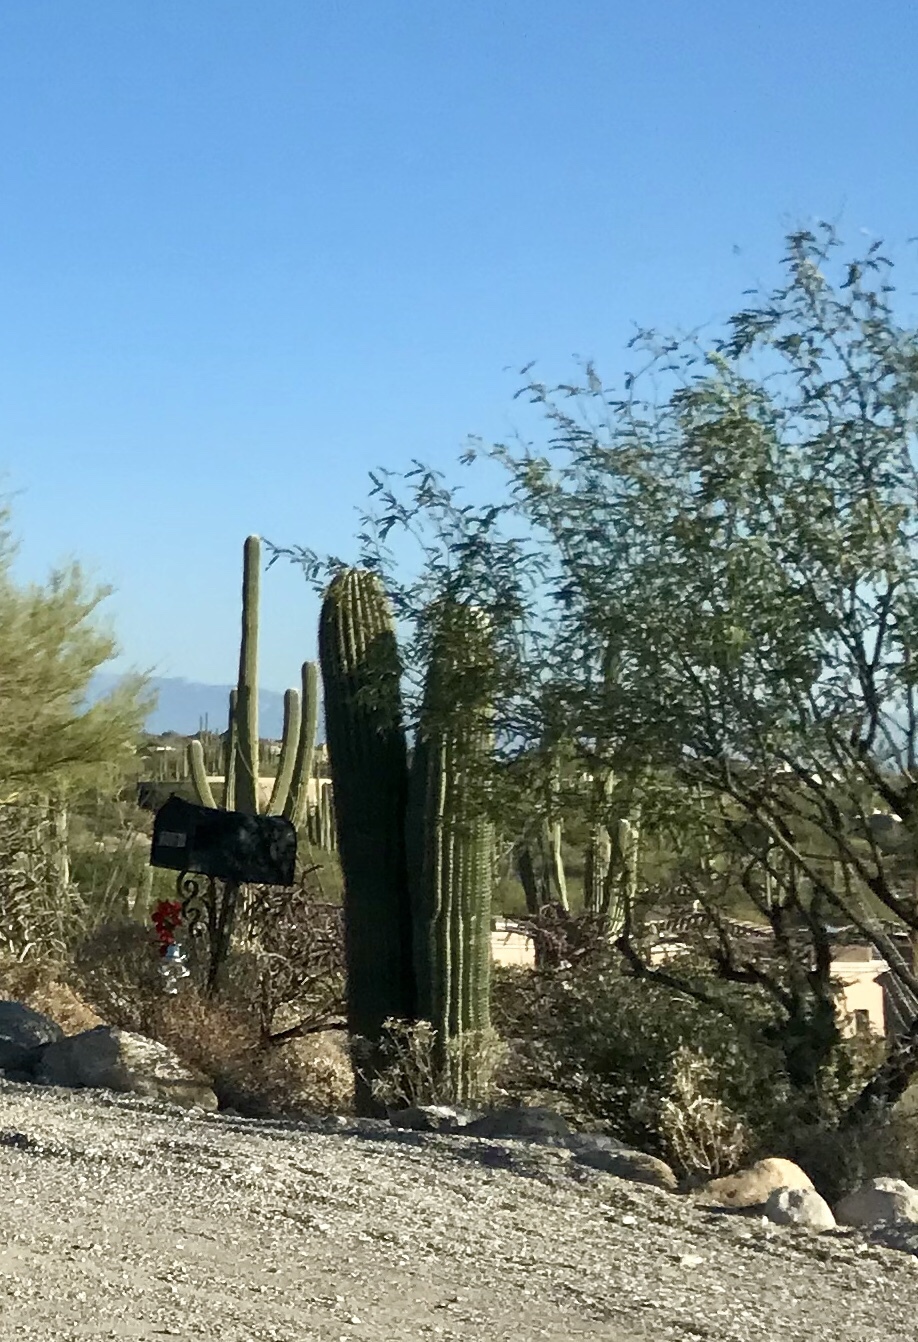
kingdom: Plantae
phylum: Tracheophyta
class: Magnoliopsida
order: Caryophyllales
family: Cactaceae
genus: Carnegiea
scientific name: Carnegiea gigantea
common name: Saguaro
